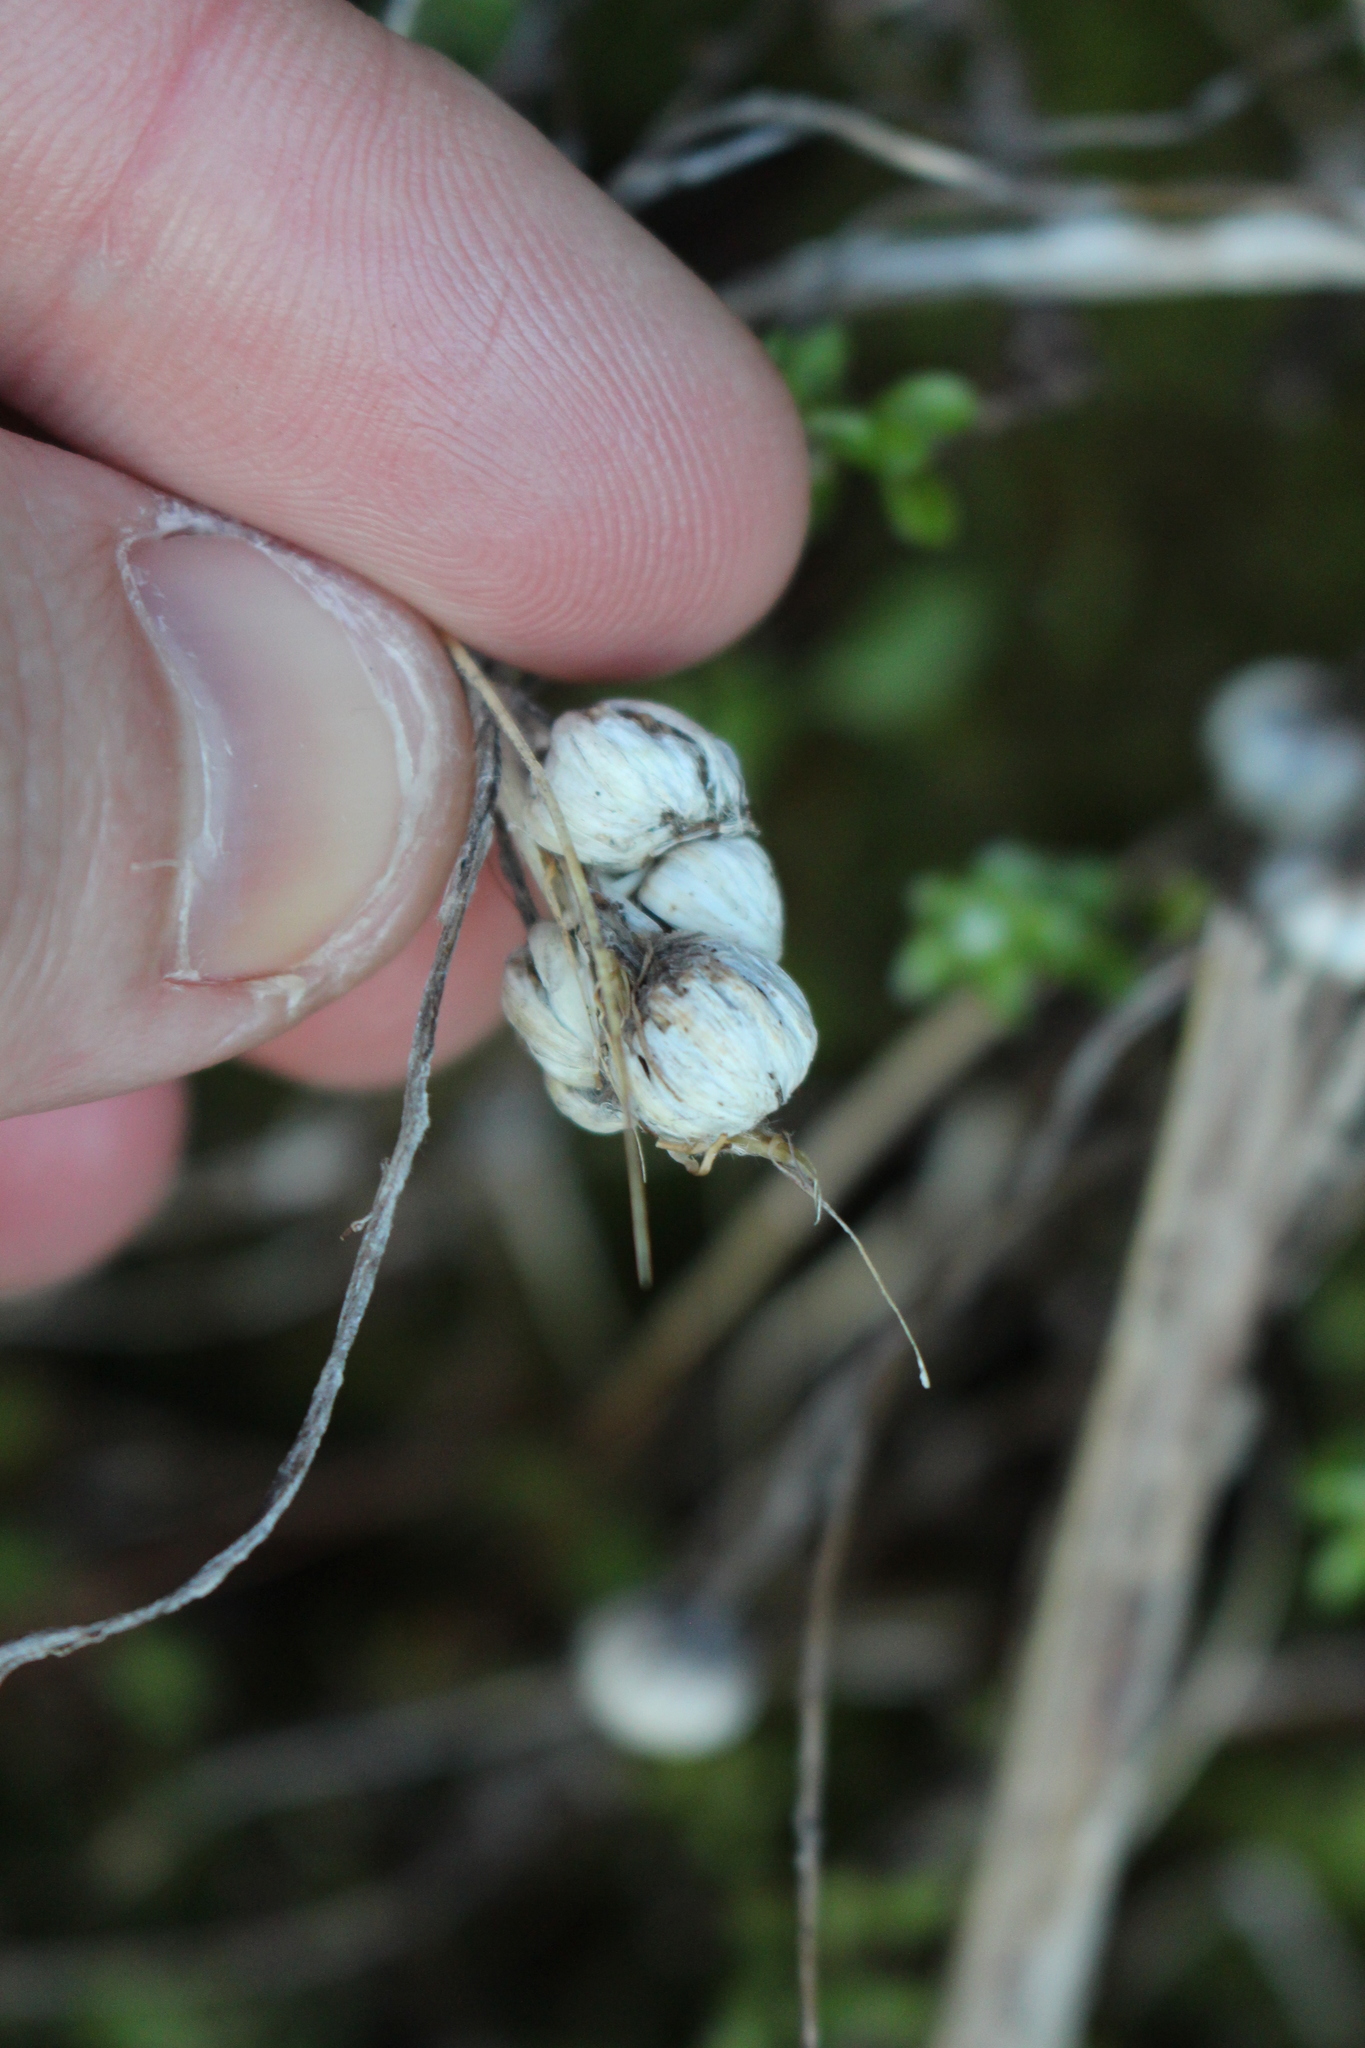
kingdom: Plantae
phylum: Tracheophyta
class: Magnoliopsida
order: Asterales
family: Asteraceae
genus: Anaphalioides
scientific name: Anaphalioides bellidioides
